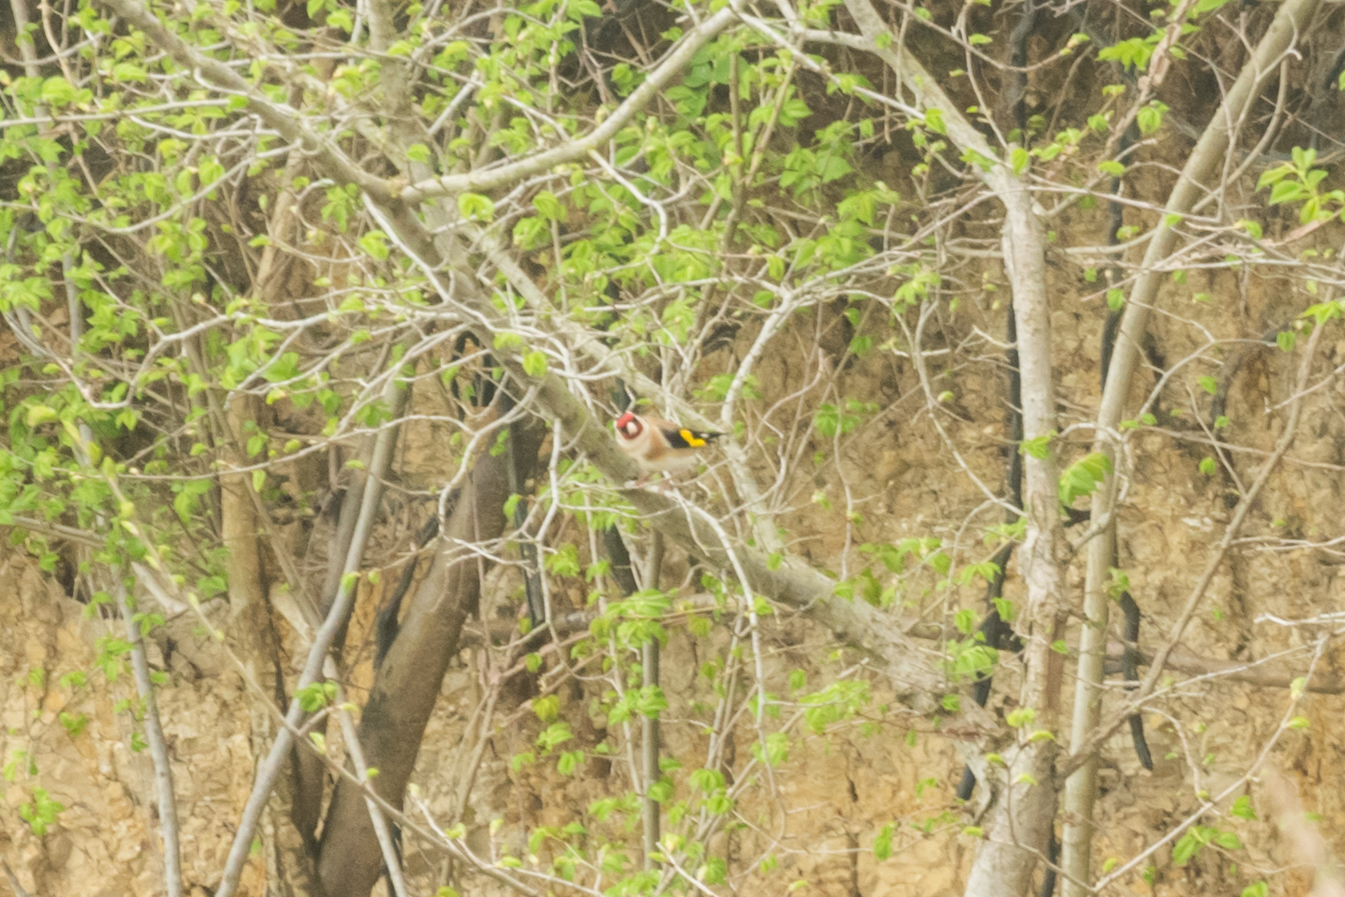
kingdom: Animalia
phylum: Chordata
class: Aves
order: Passeriformes
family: Fringillidae
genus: Carduelis
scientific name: Carduelis carduelis
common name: European goldfinch
